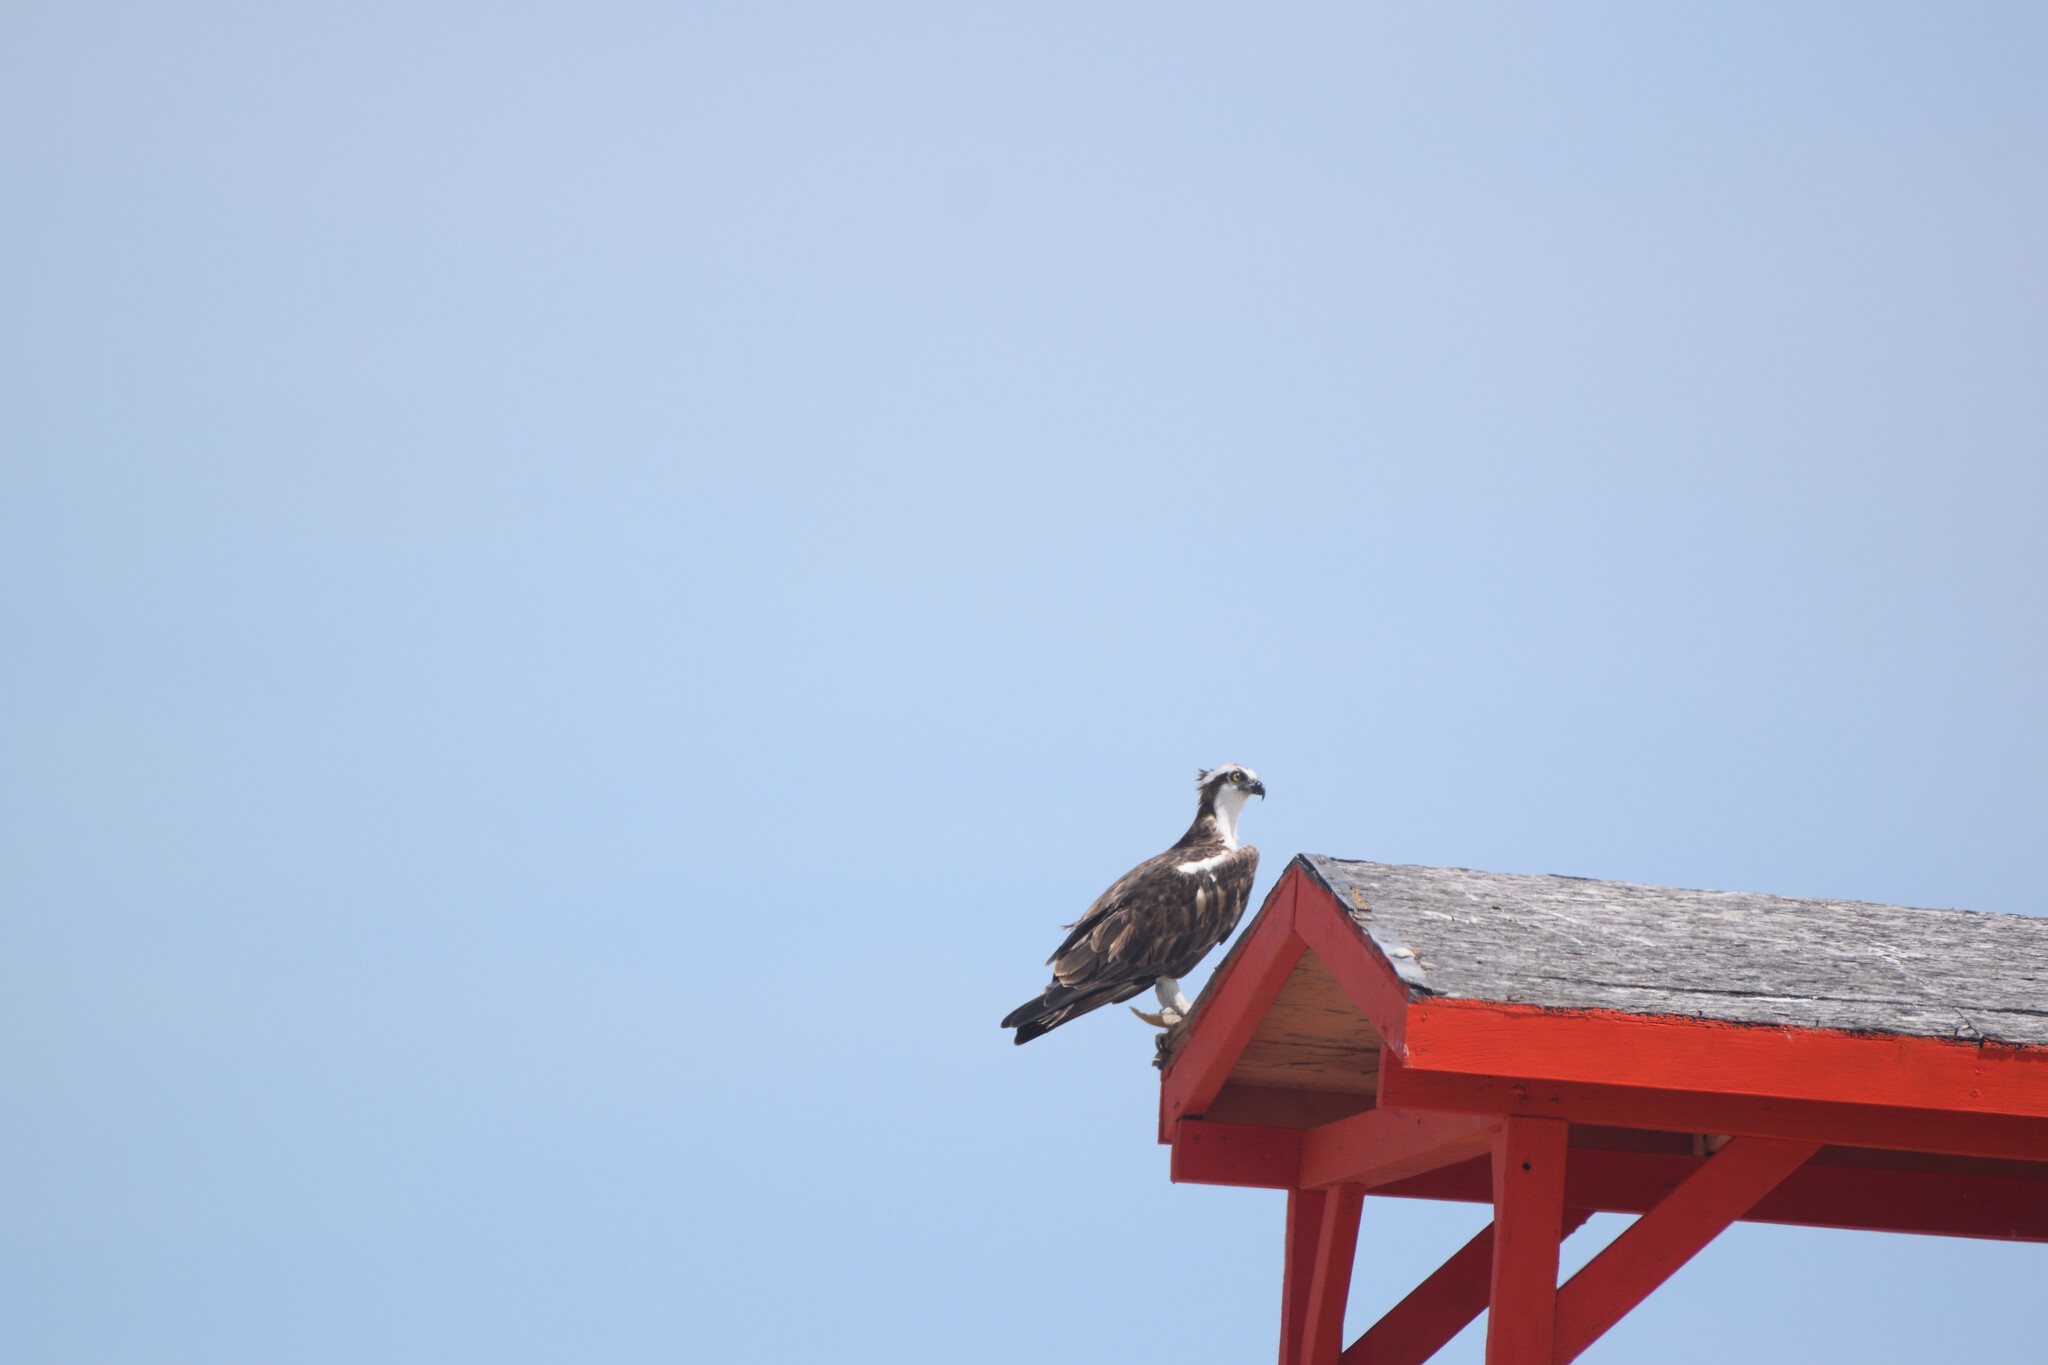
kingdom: Animalia
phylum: Chordata
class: Aves
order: Accipitriformes
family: Pandionidae
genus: Pandion
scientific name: Pandion haliaetus
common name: Osprey
